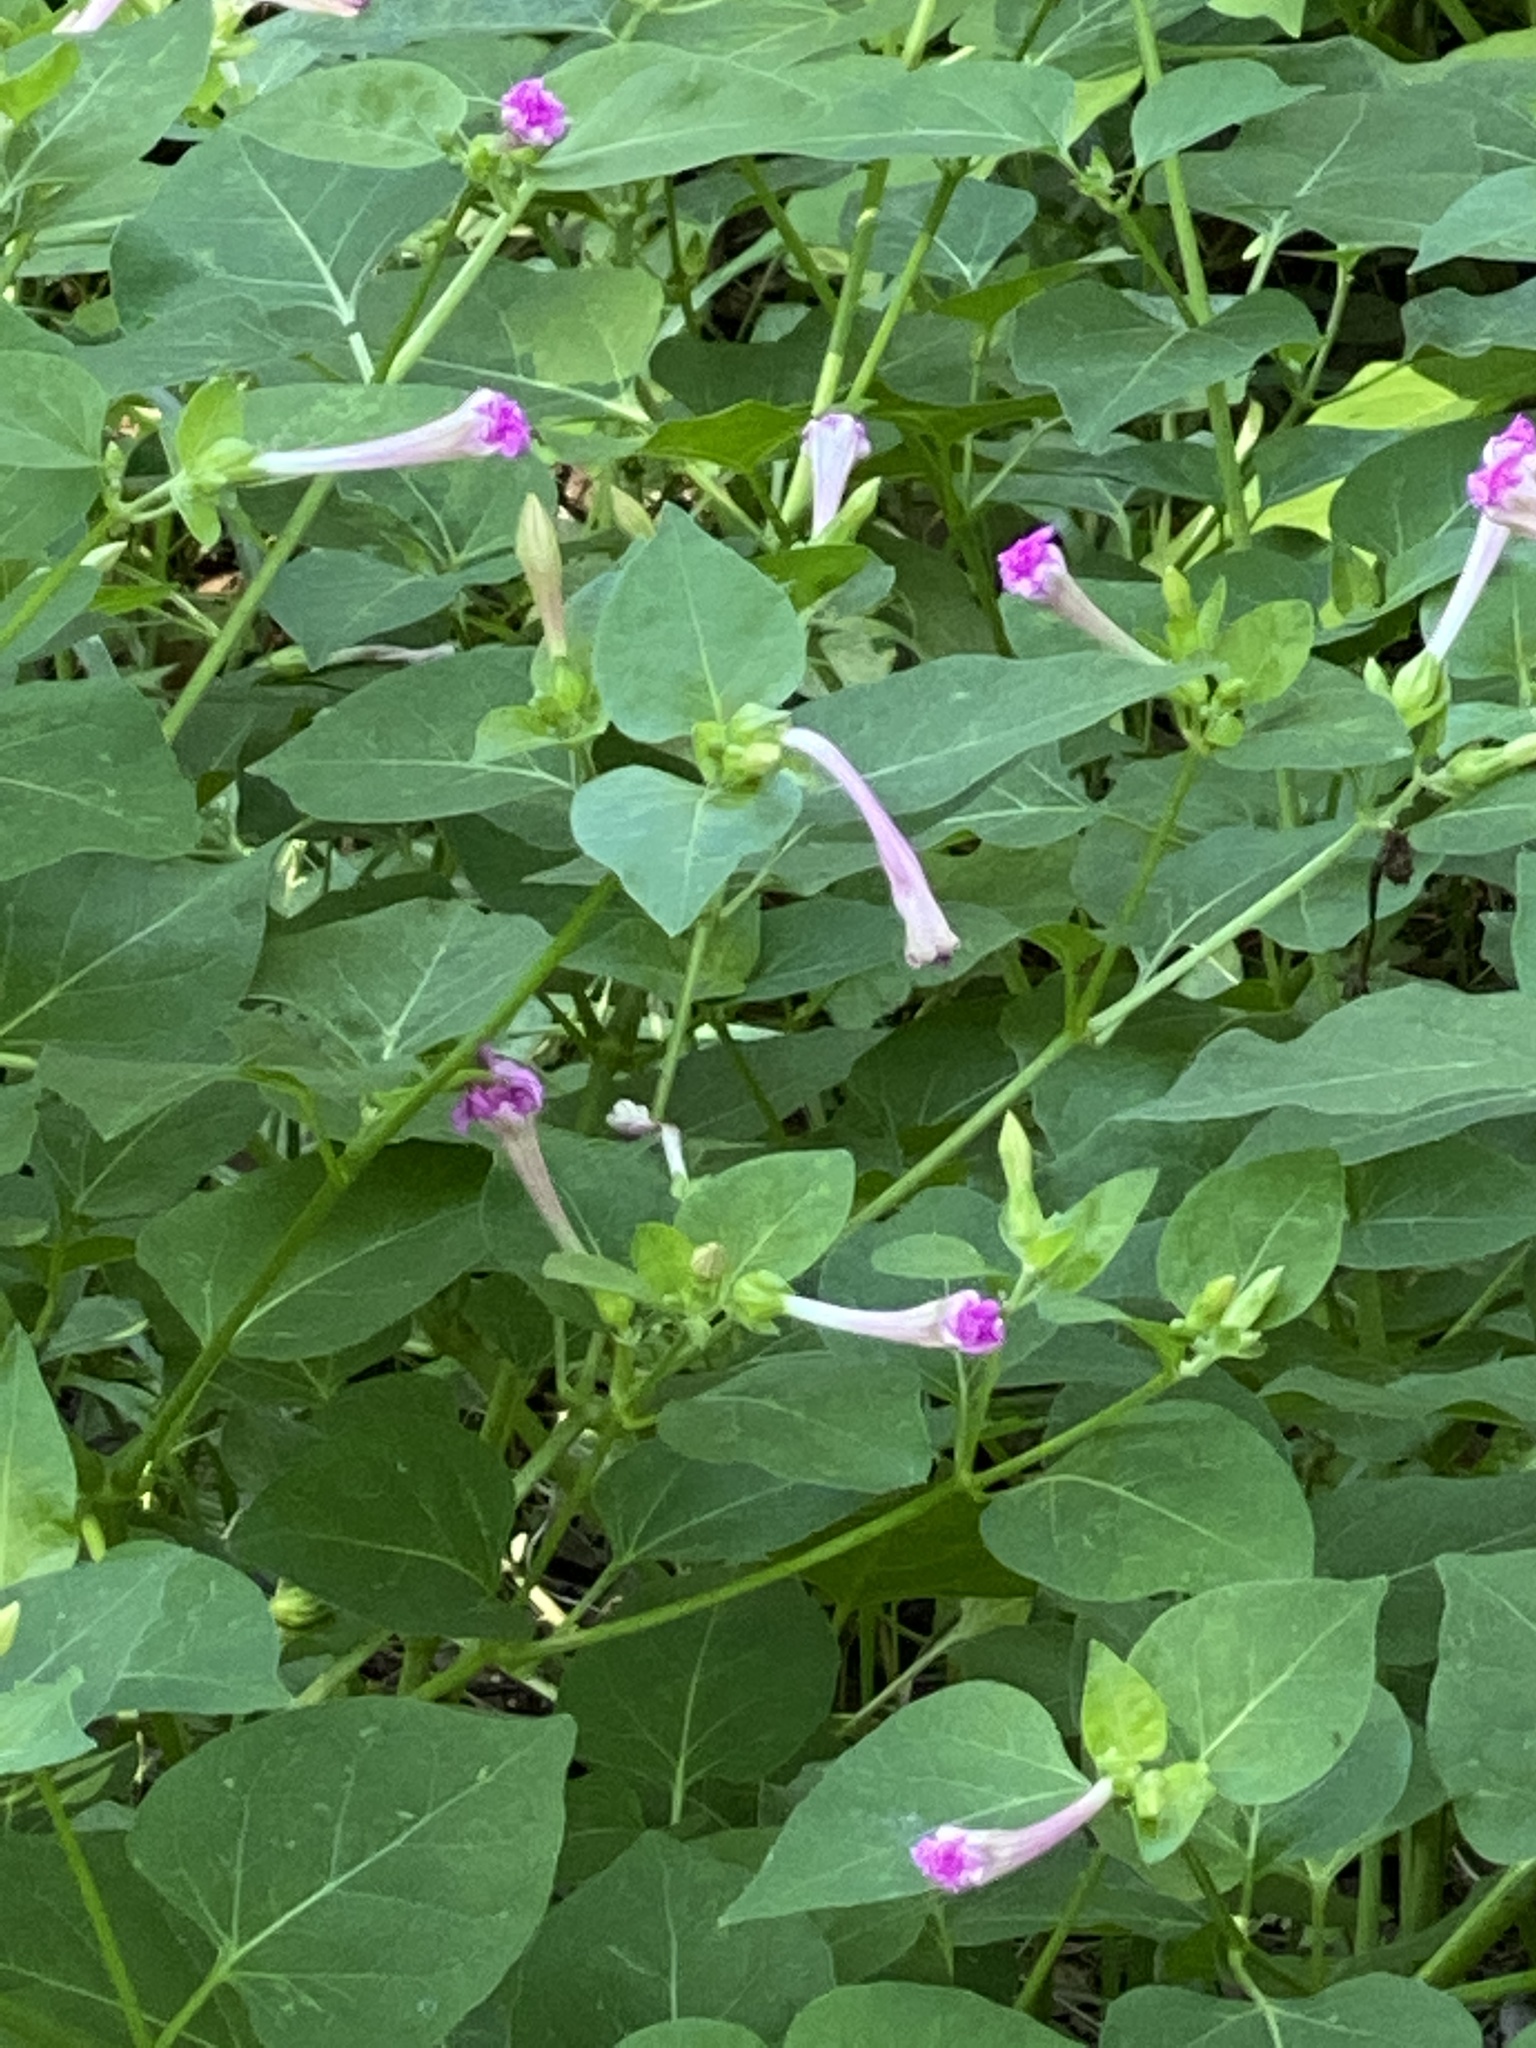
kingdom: Plantae
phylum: Tracheophyta
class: Magnoliopsida
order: Caryophyllales
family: Nyctaginaceae
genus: Mirabilis
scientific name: Mirabilis jalapa
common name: Marvel-of-peru
